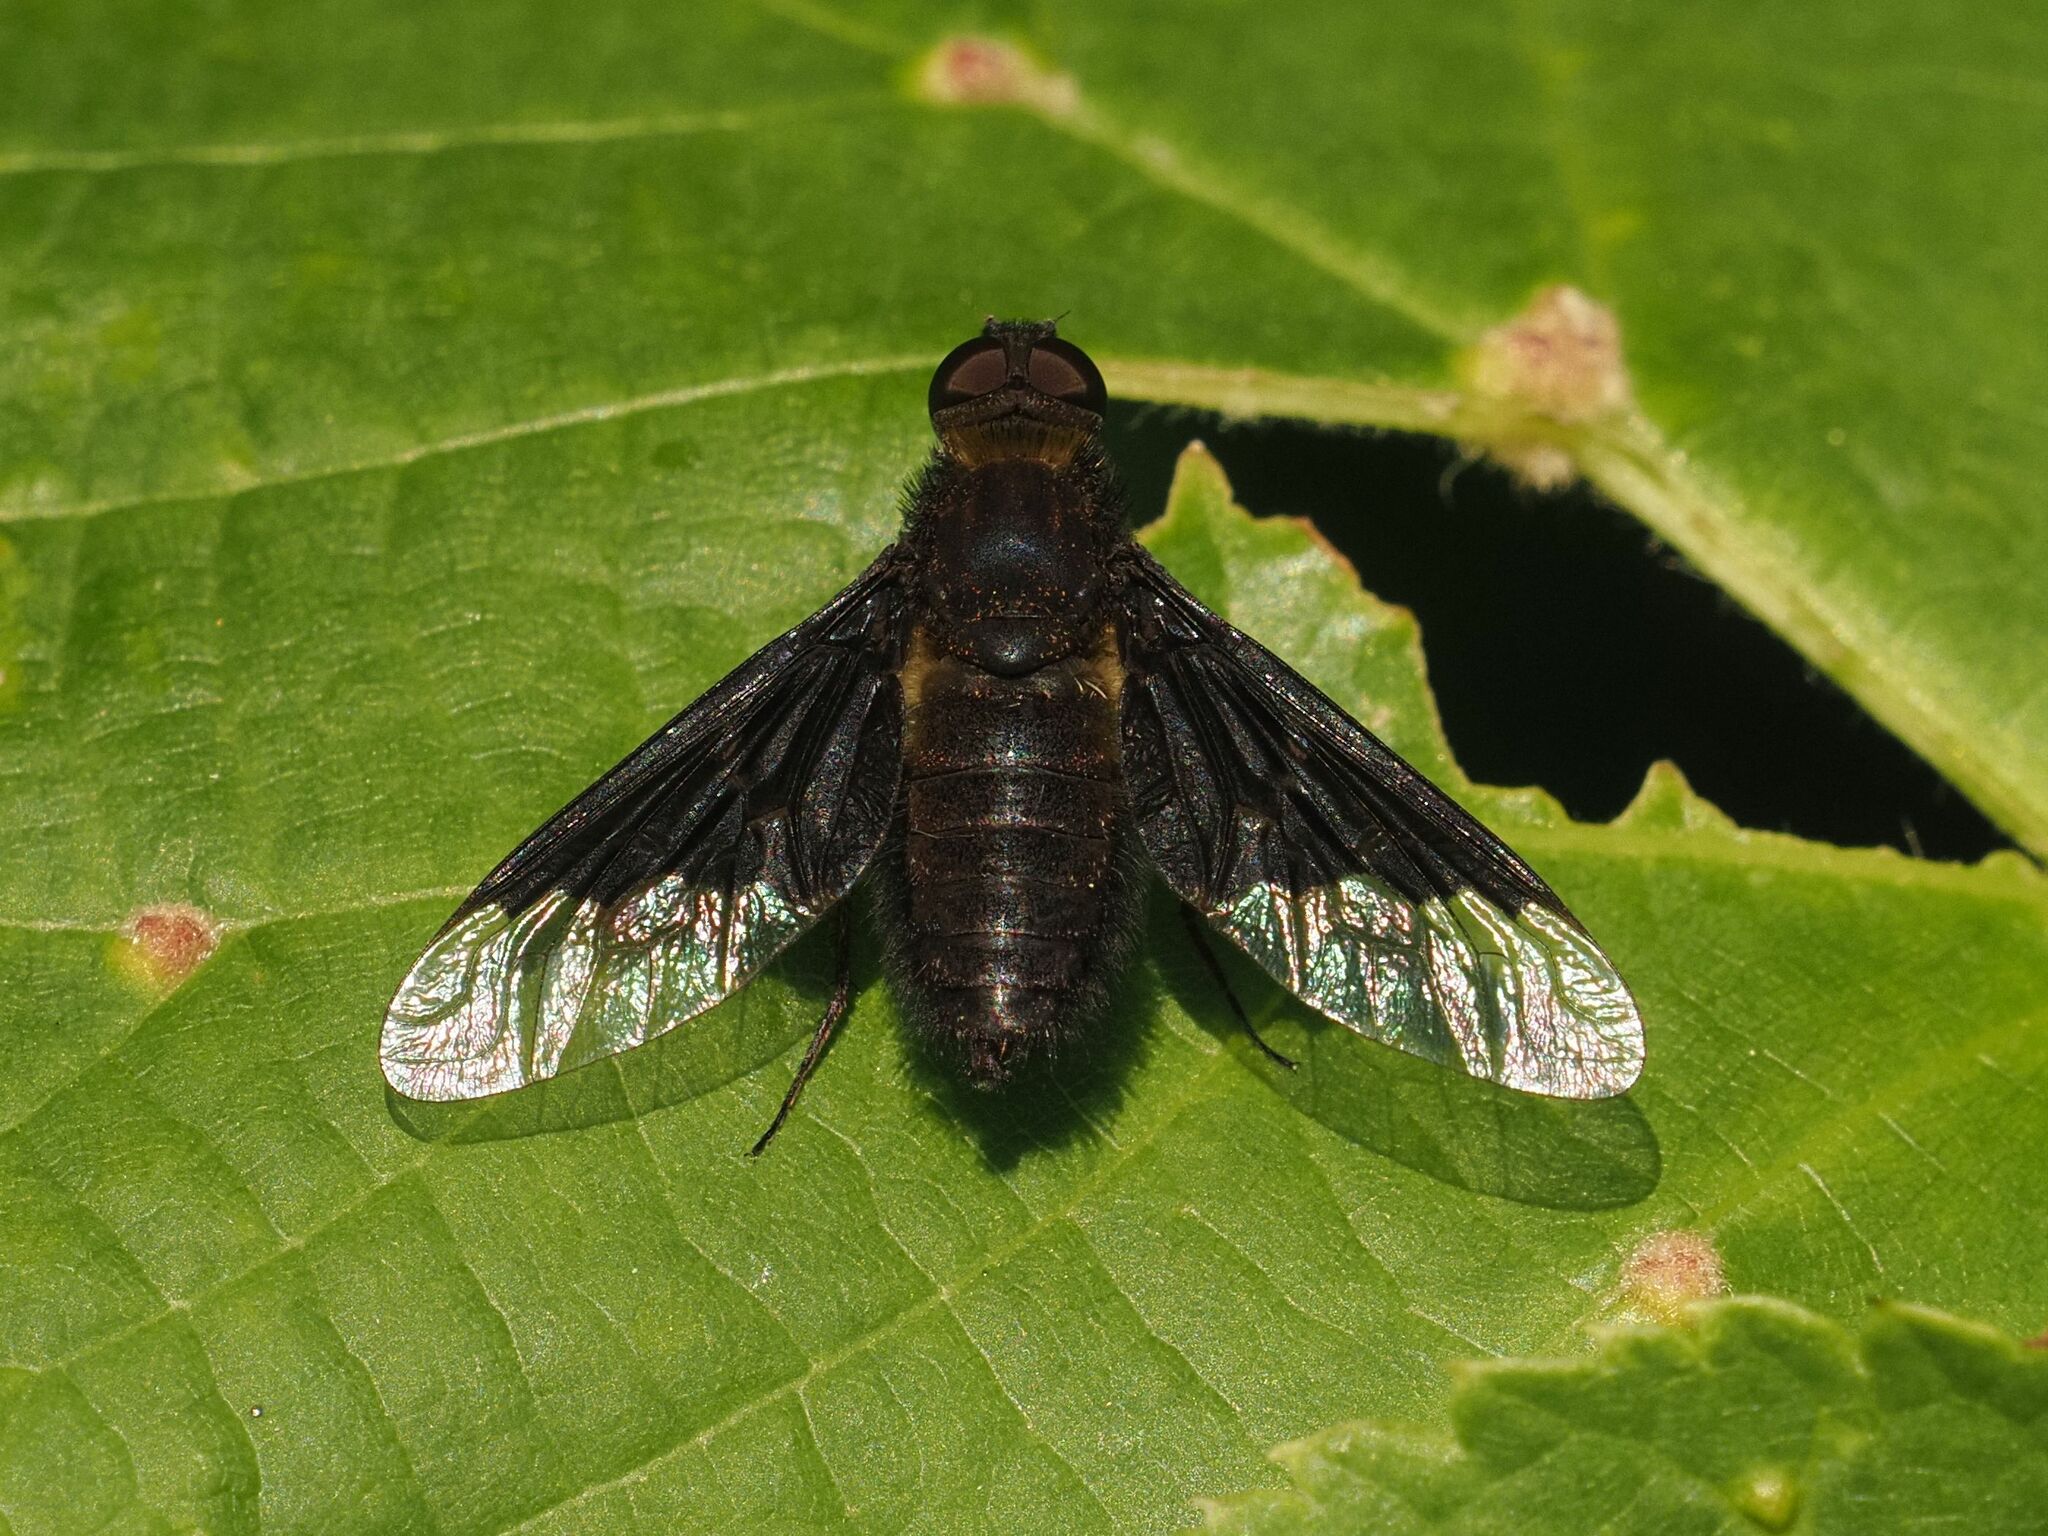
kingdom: Animalia
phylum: Arthropoda
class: Insecta
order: Diptera
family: Bombyliidae
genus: Hemipenthes
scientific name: Hemipenthes morio
